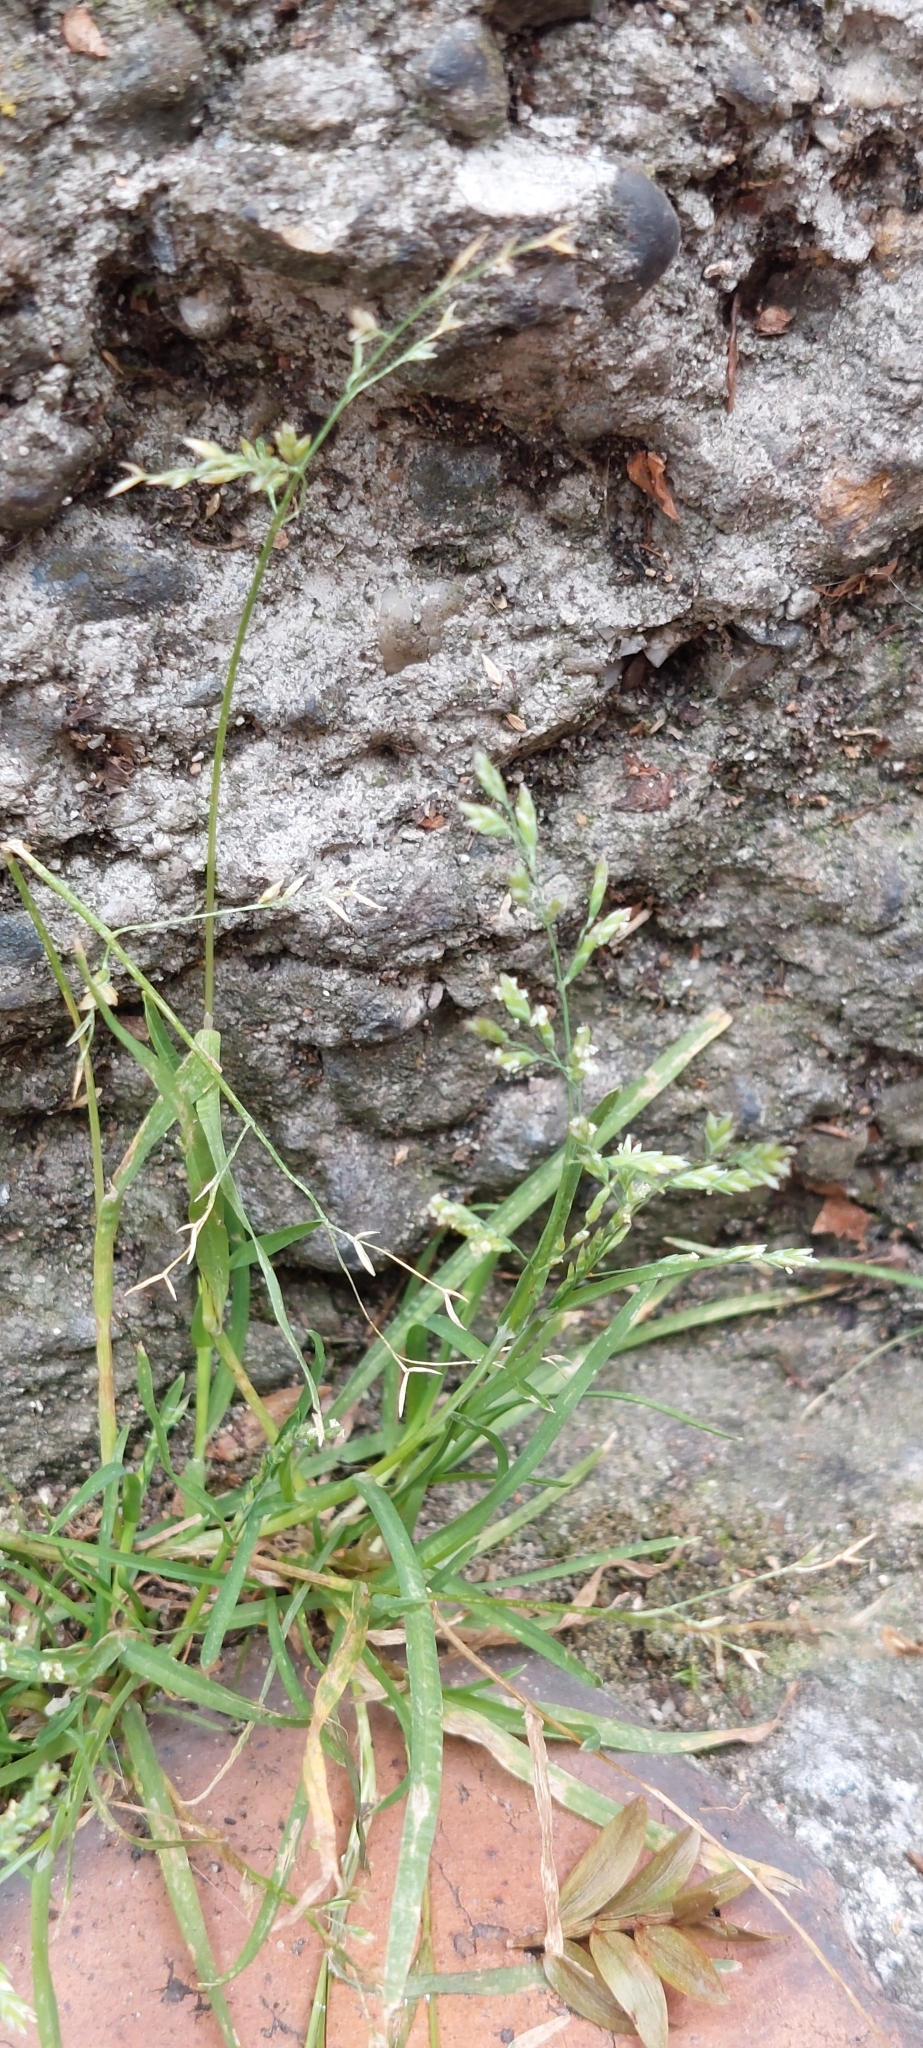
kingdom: Plantae
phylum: Tracheophyta
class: Liliopsida
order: Poales
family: Poaceae
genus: Poa
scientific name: Poa annua
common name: Annual bluegrass
